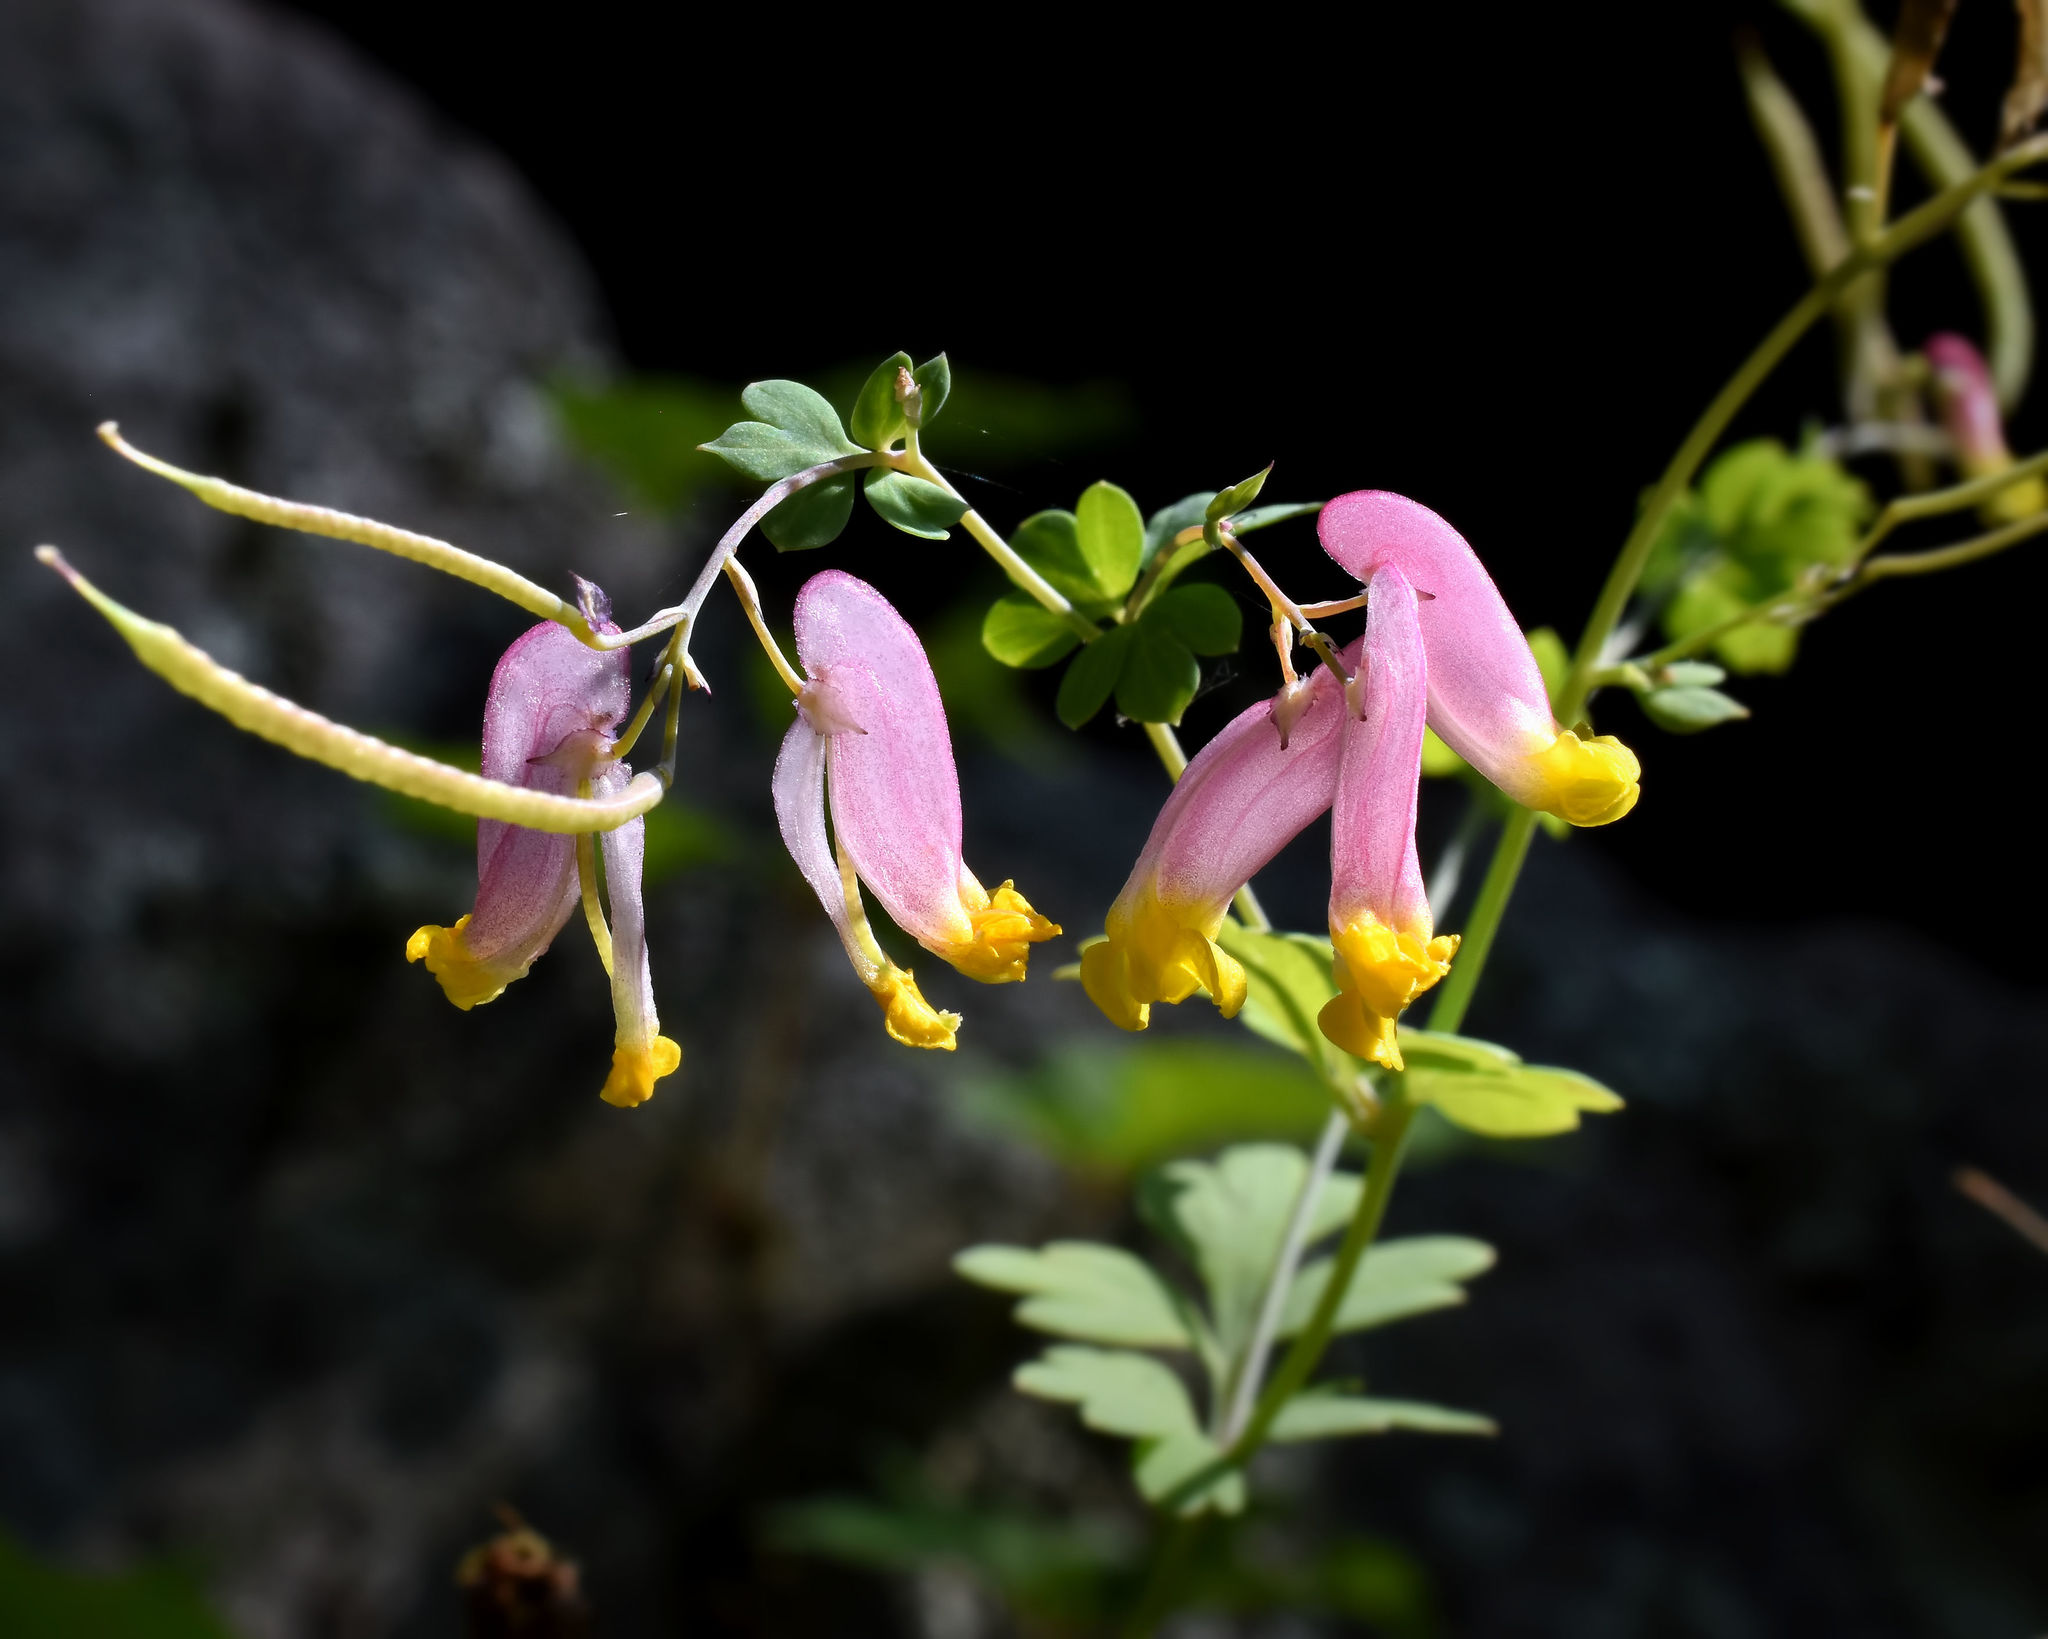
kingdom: Plantae
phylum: Tracheophyta
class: Magnoliopsida
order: Ranunculales
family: Papaveraceae
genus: Capnoides
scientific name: Capnoides sempervirens
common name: Rock harlequin
